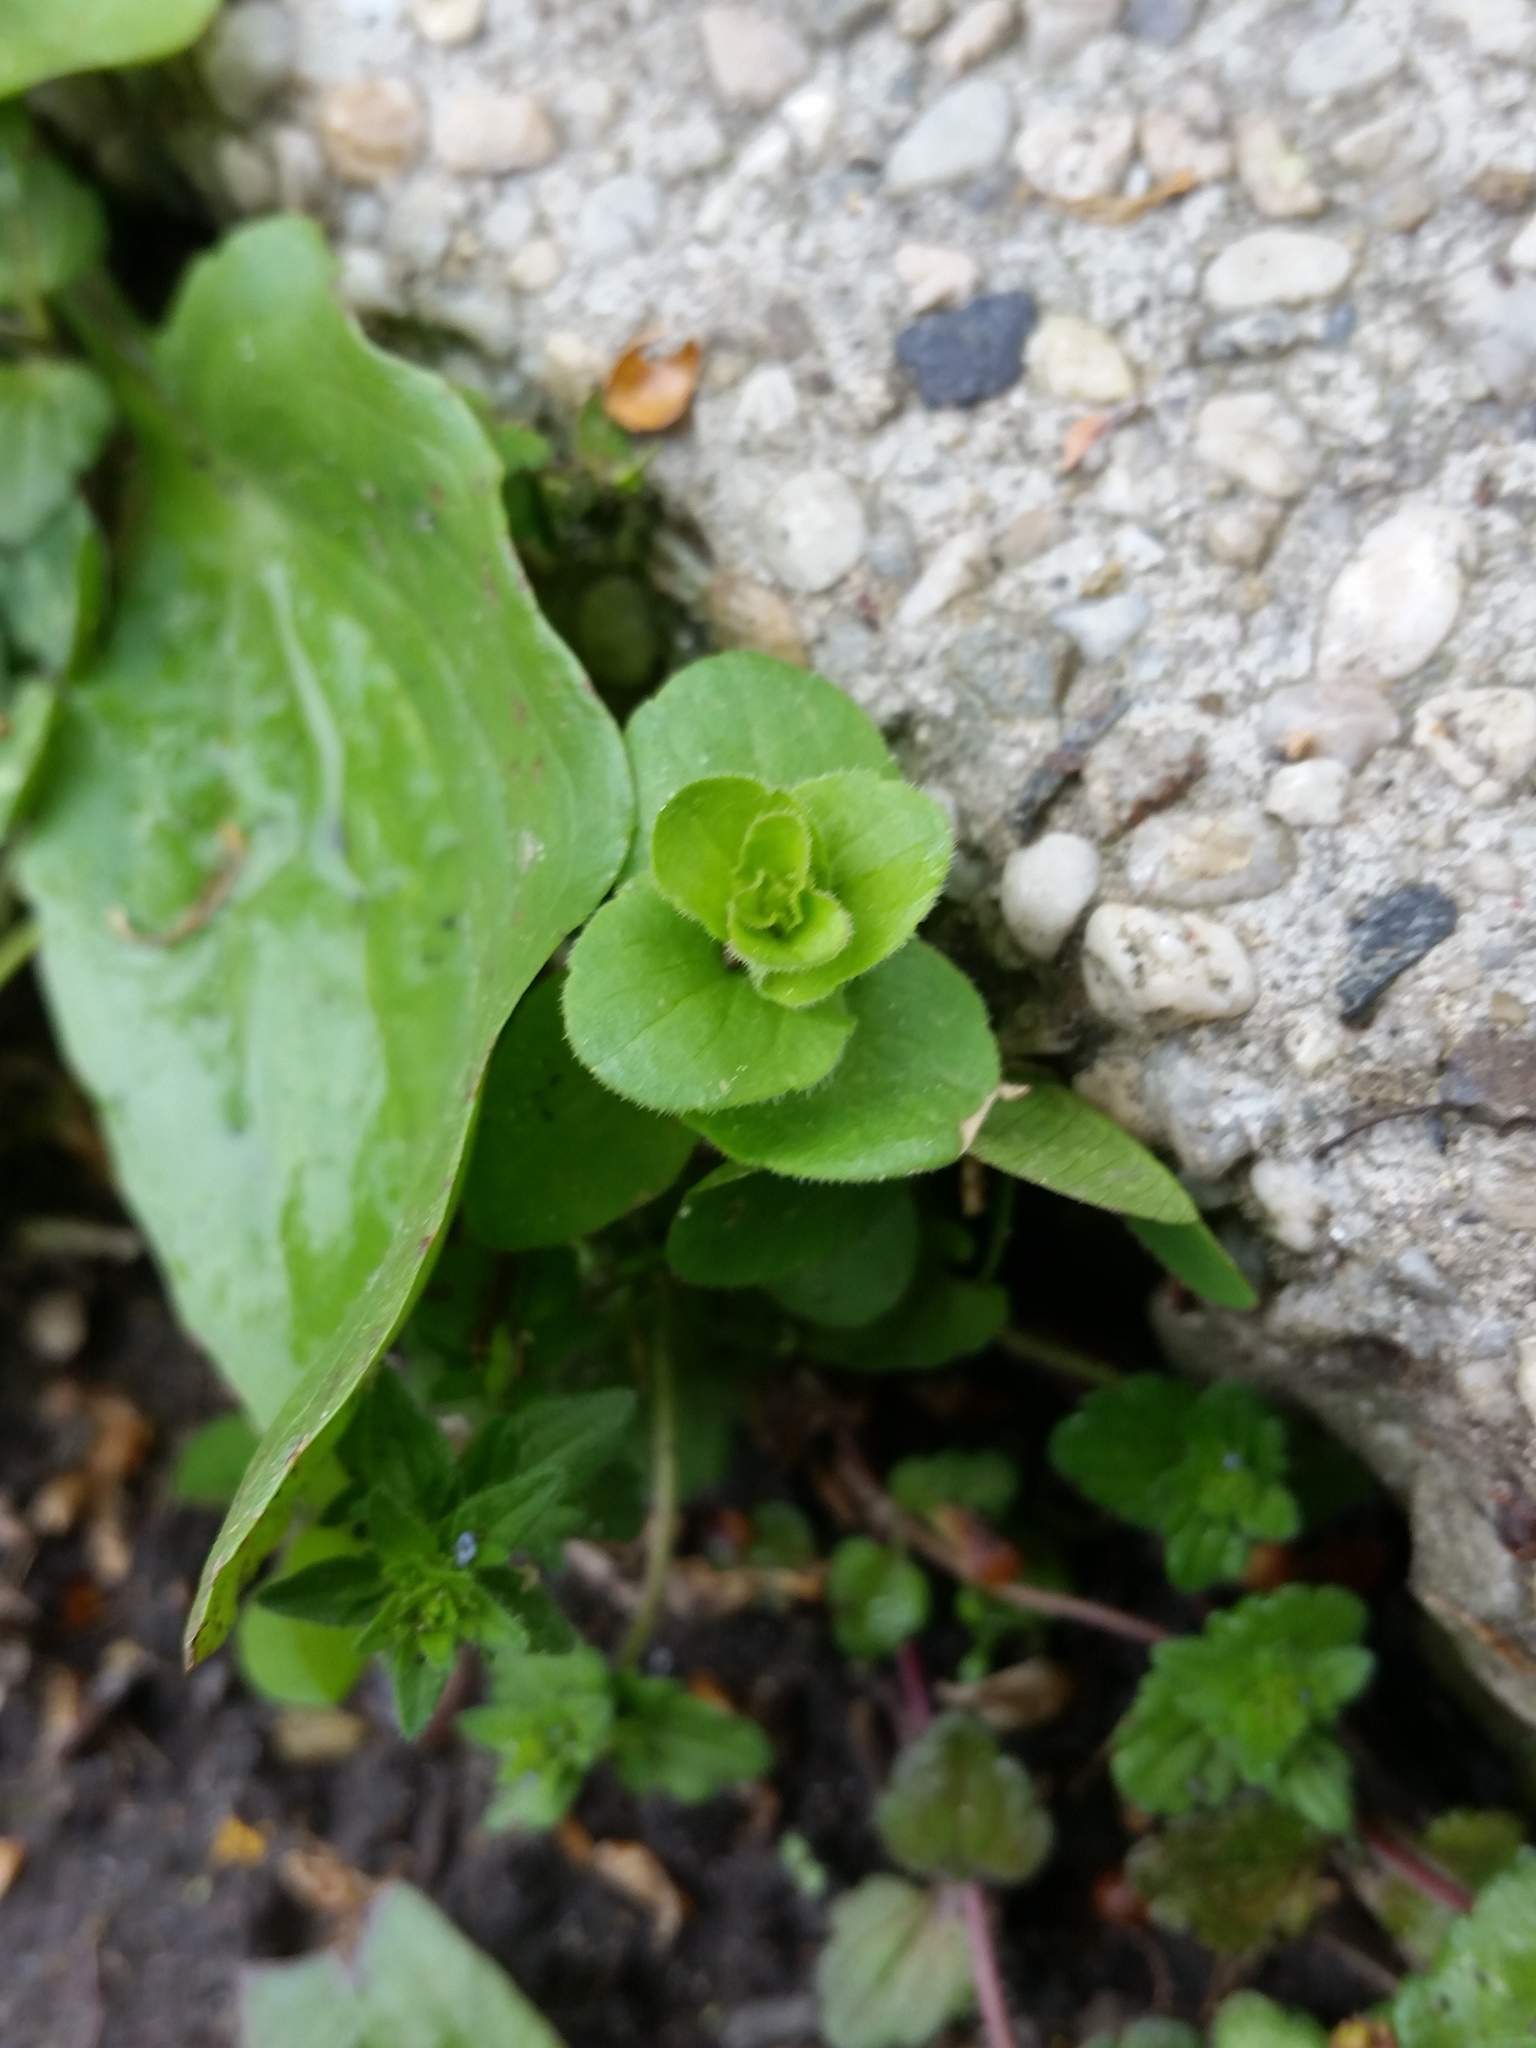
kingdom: Plantae
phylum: Tracheophyta
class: Magnoliopsida
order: Asterales
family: Campanulaceae
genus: Triodanis
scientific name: Triodanis perfoliata
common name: Clasping venus' looking-glass
